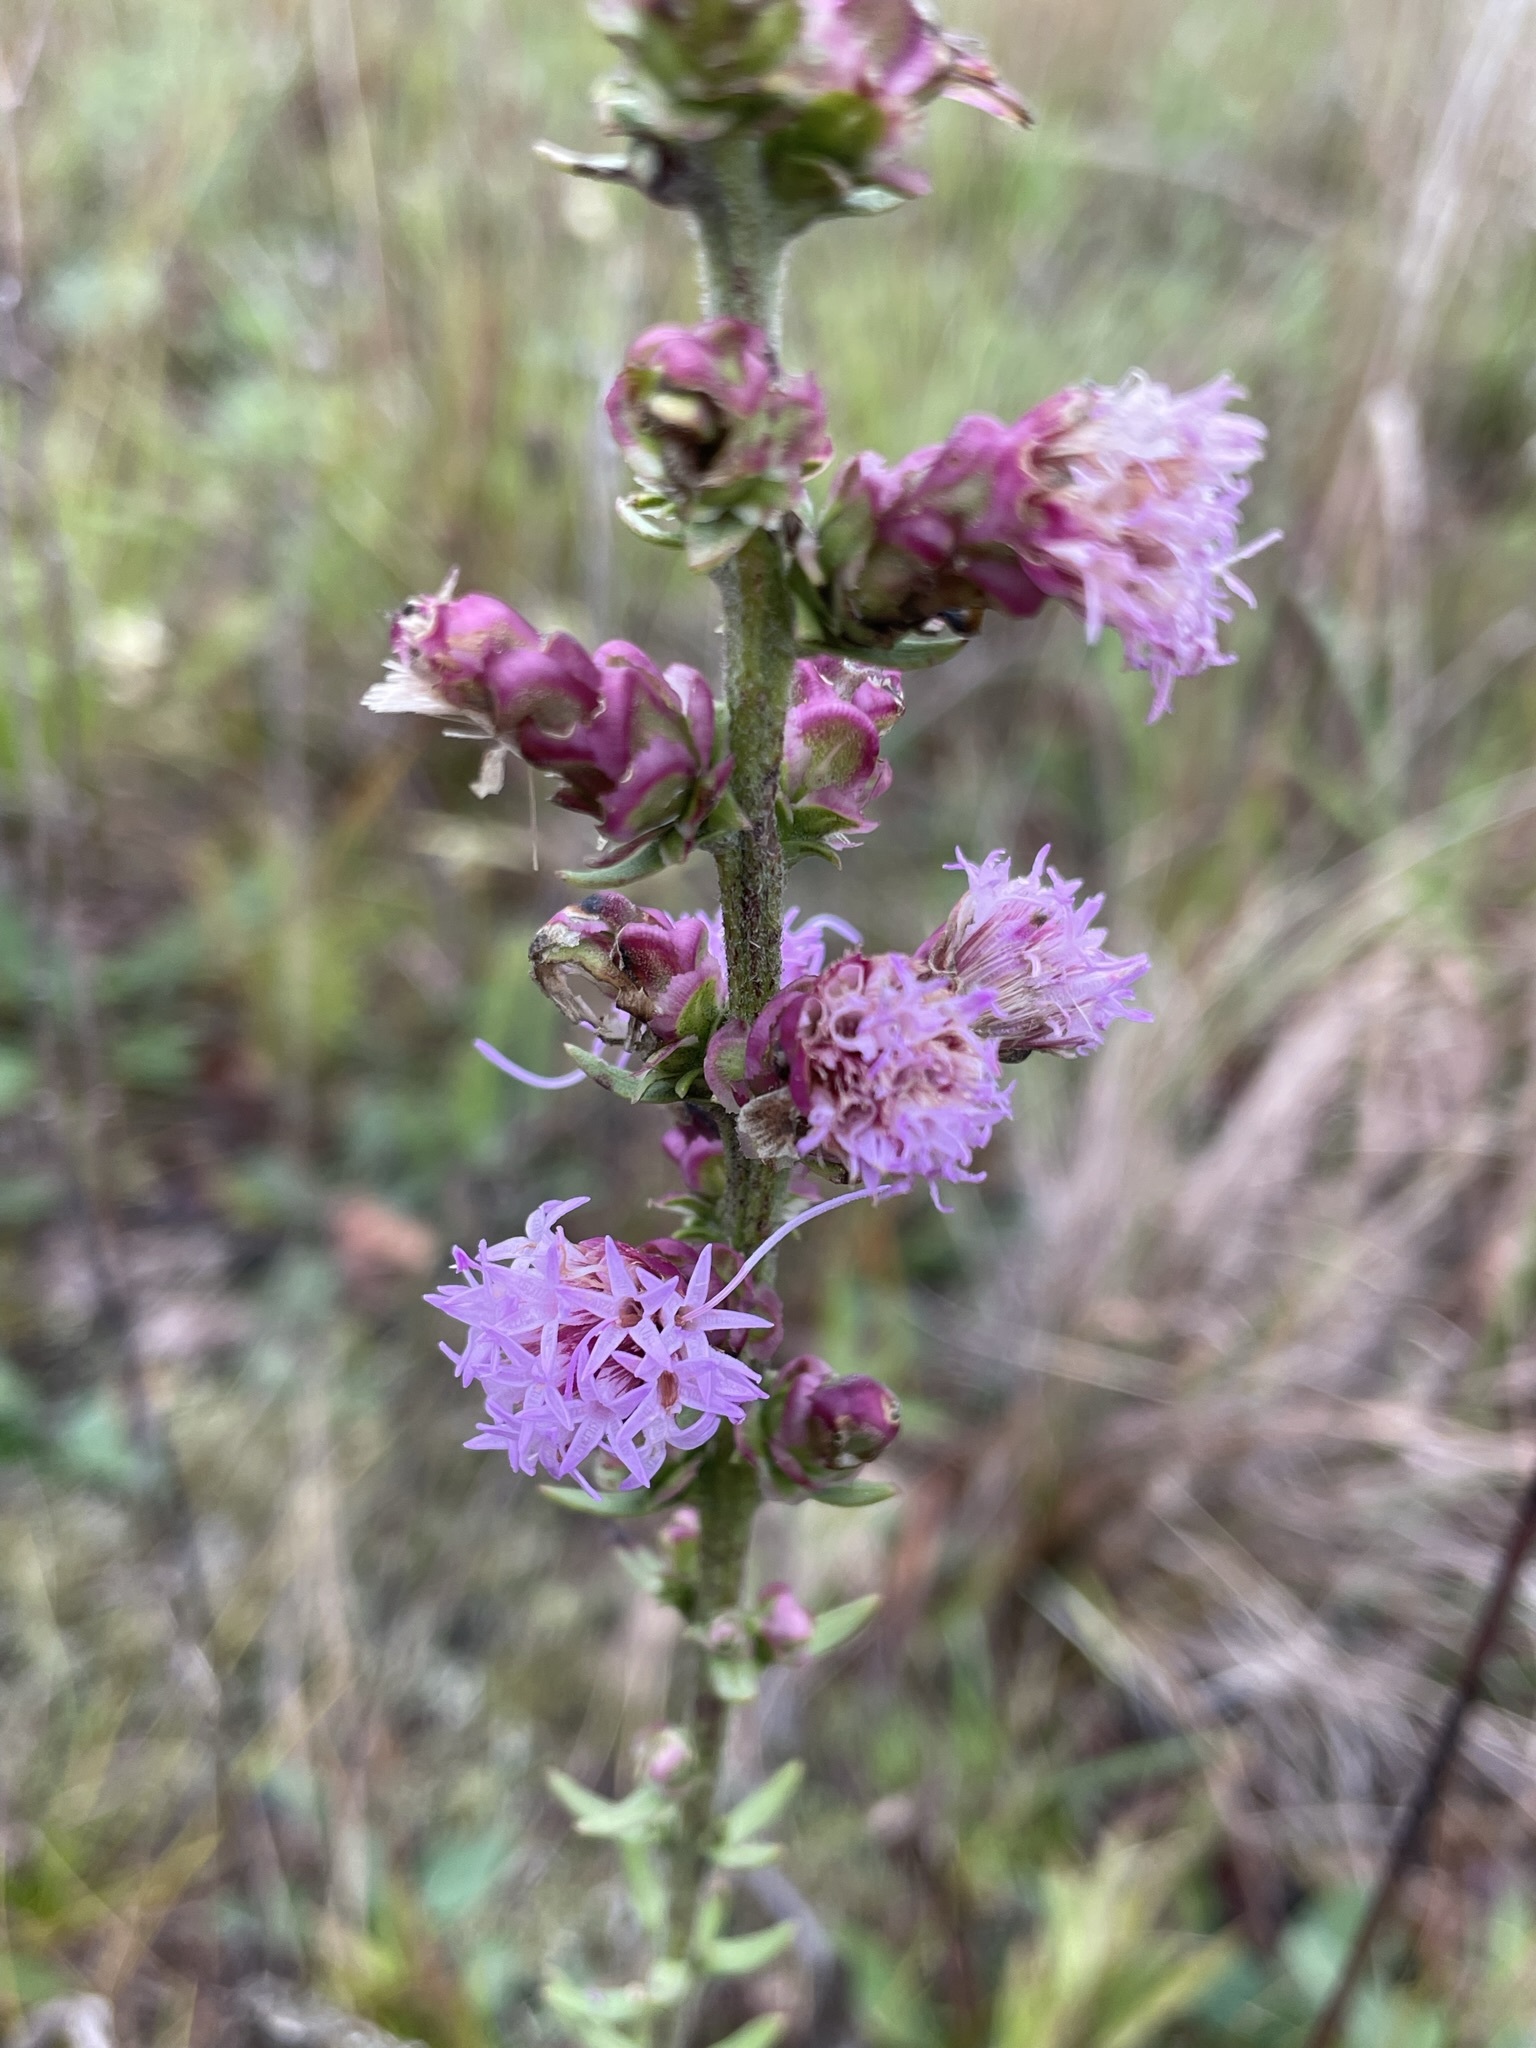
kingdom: Plantae
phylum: Tracheophyta
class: Magnoliopsida
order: Asterales
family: Asteraceae
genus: Liatris
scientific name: Liatris aspera
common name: Lacerate blazing-star
